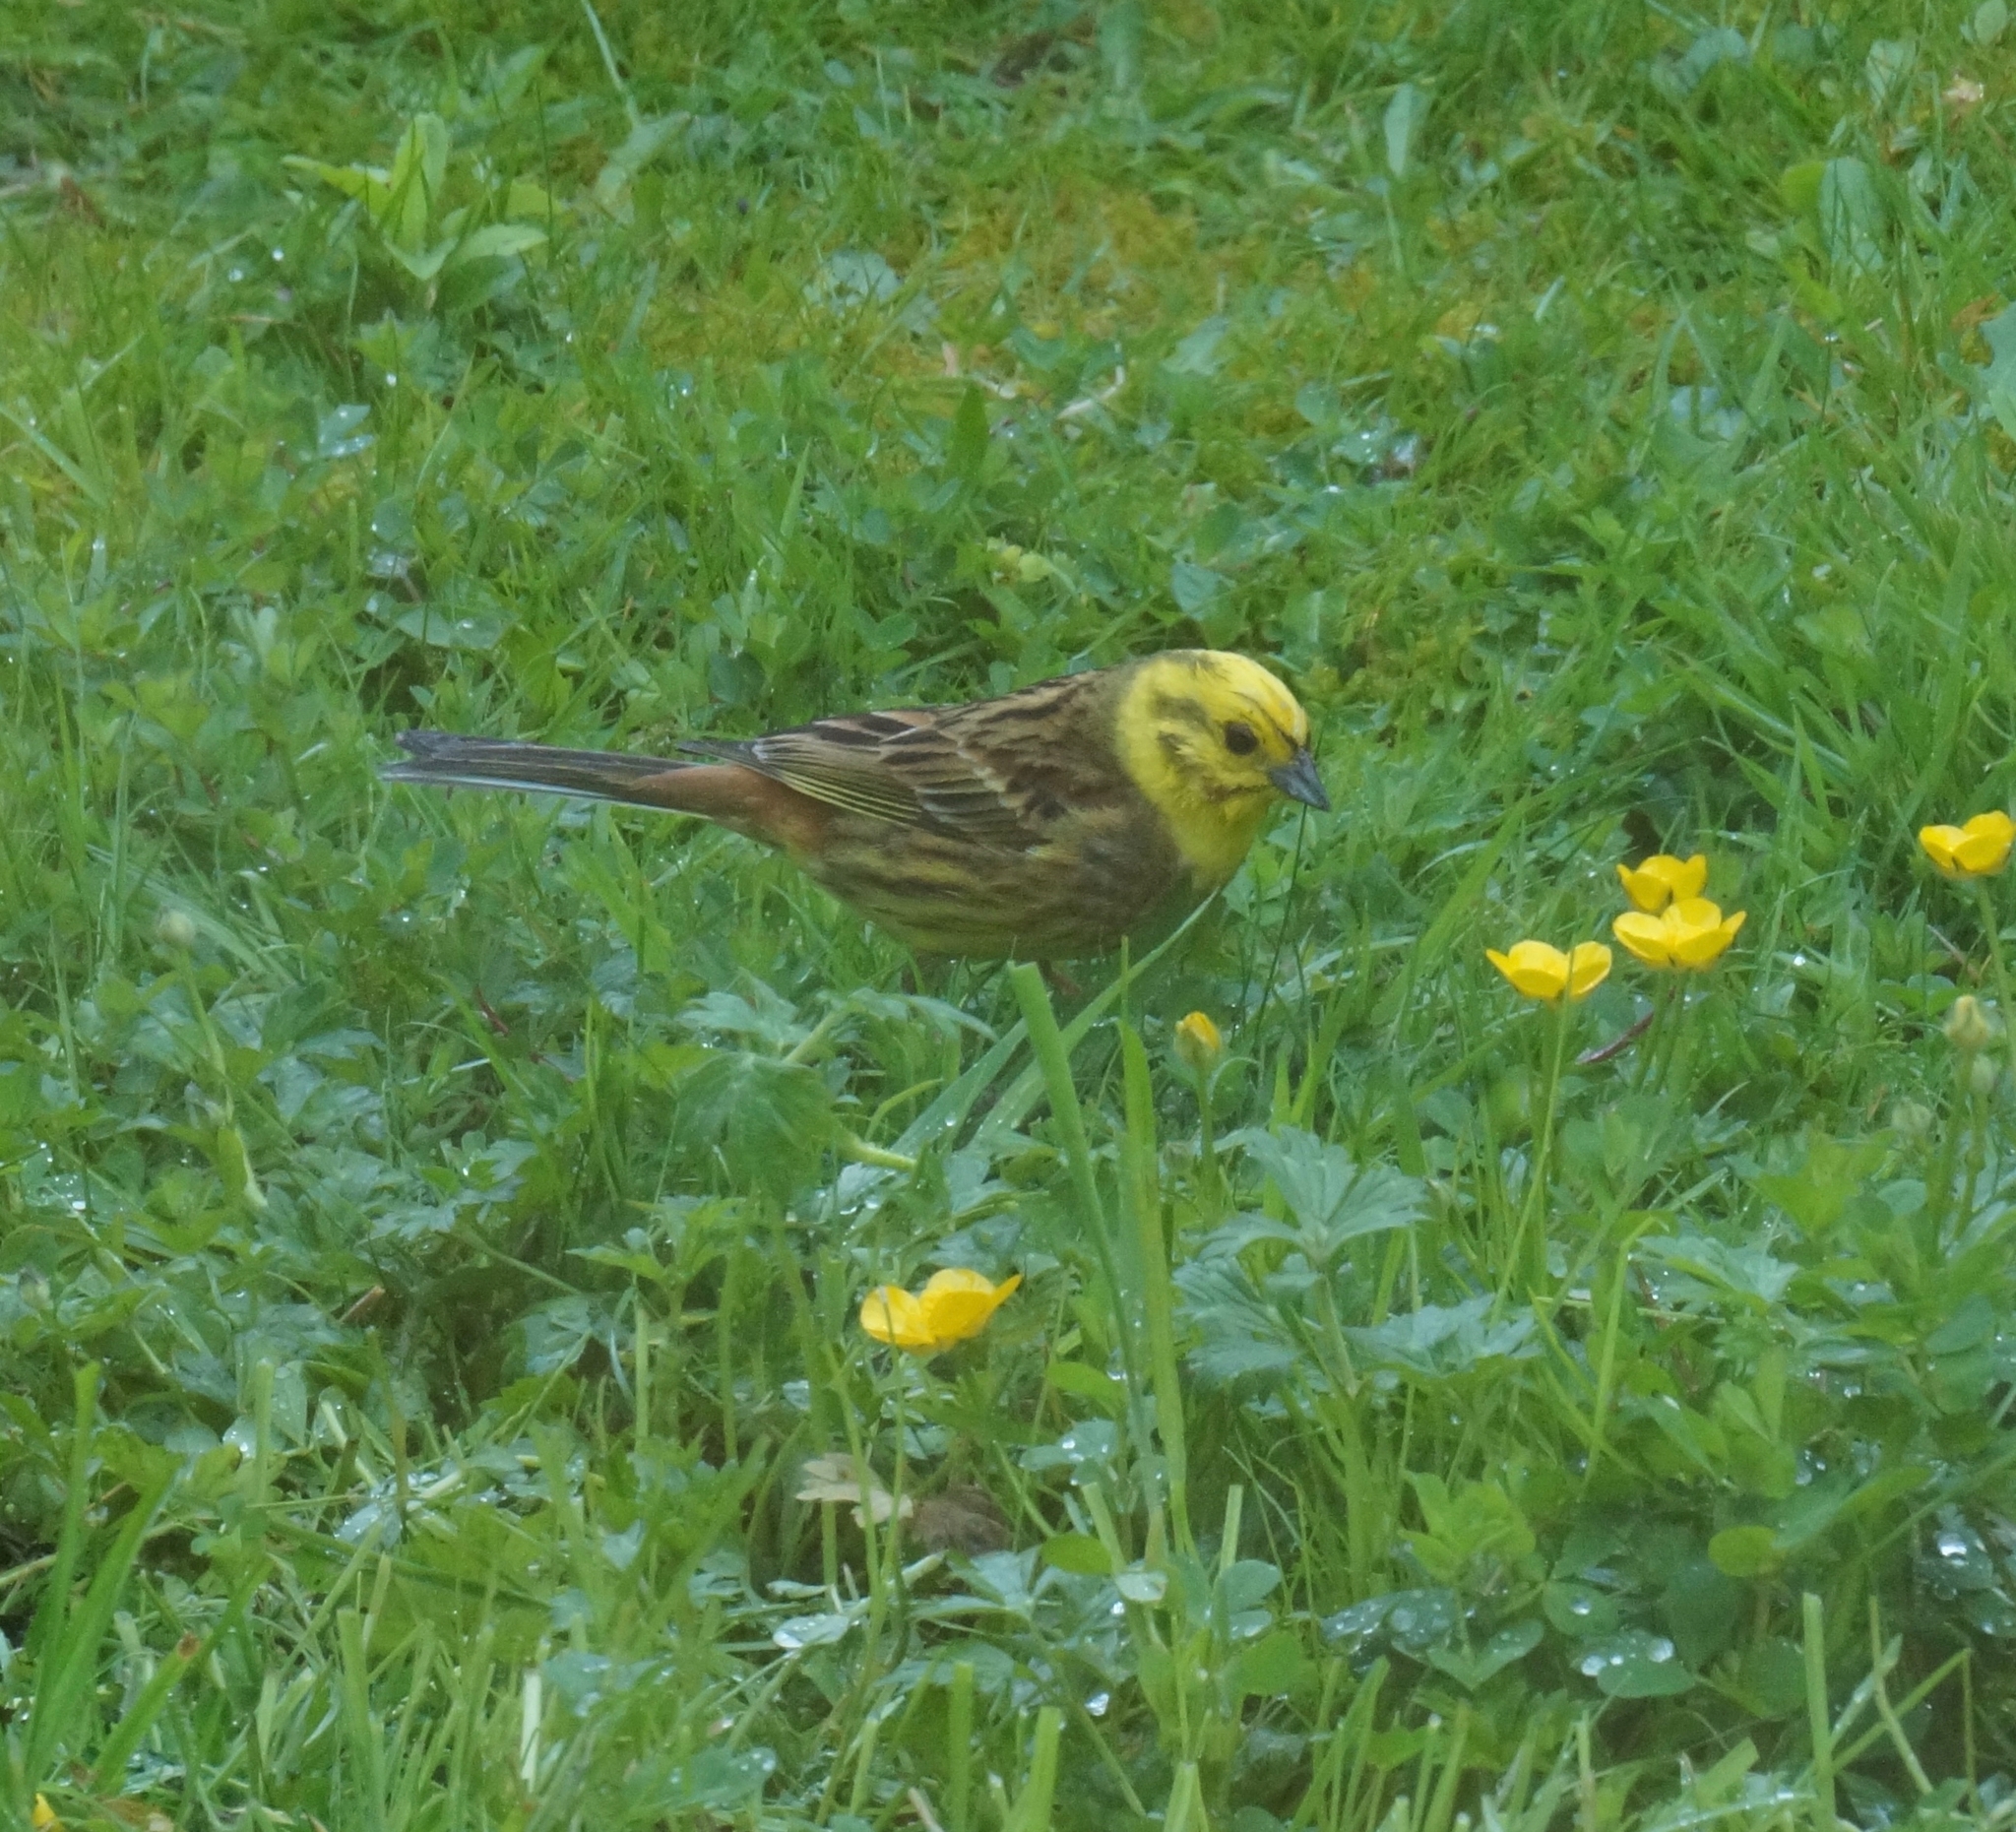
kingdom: Animalia
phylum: Chordata
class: Aves
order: Passeriformes
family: Emberizidae
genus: Emberiza
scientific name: Emberiza citrinella
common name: Yellowhammer
